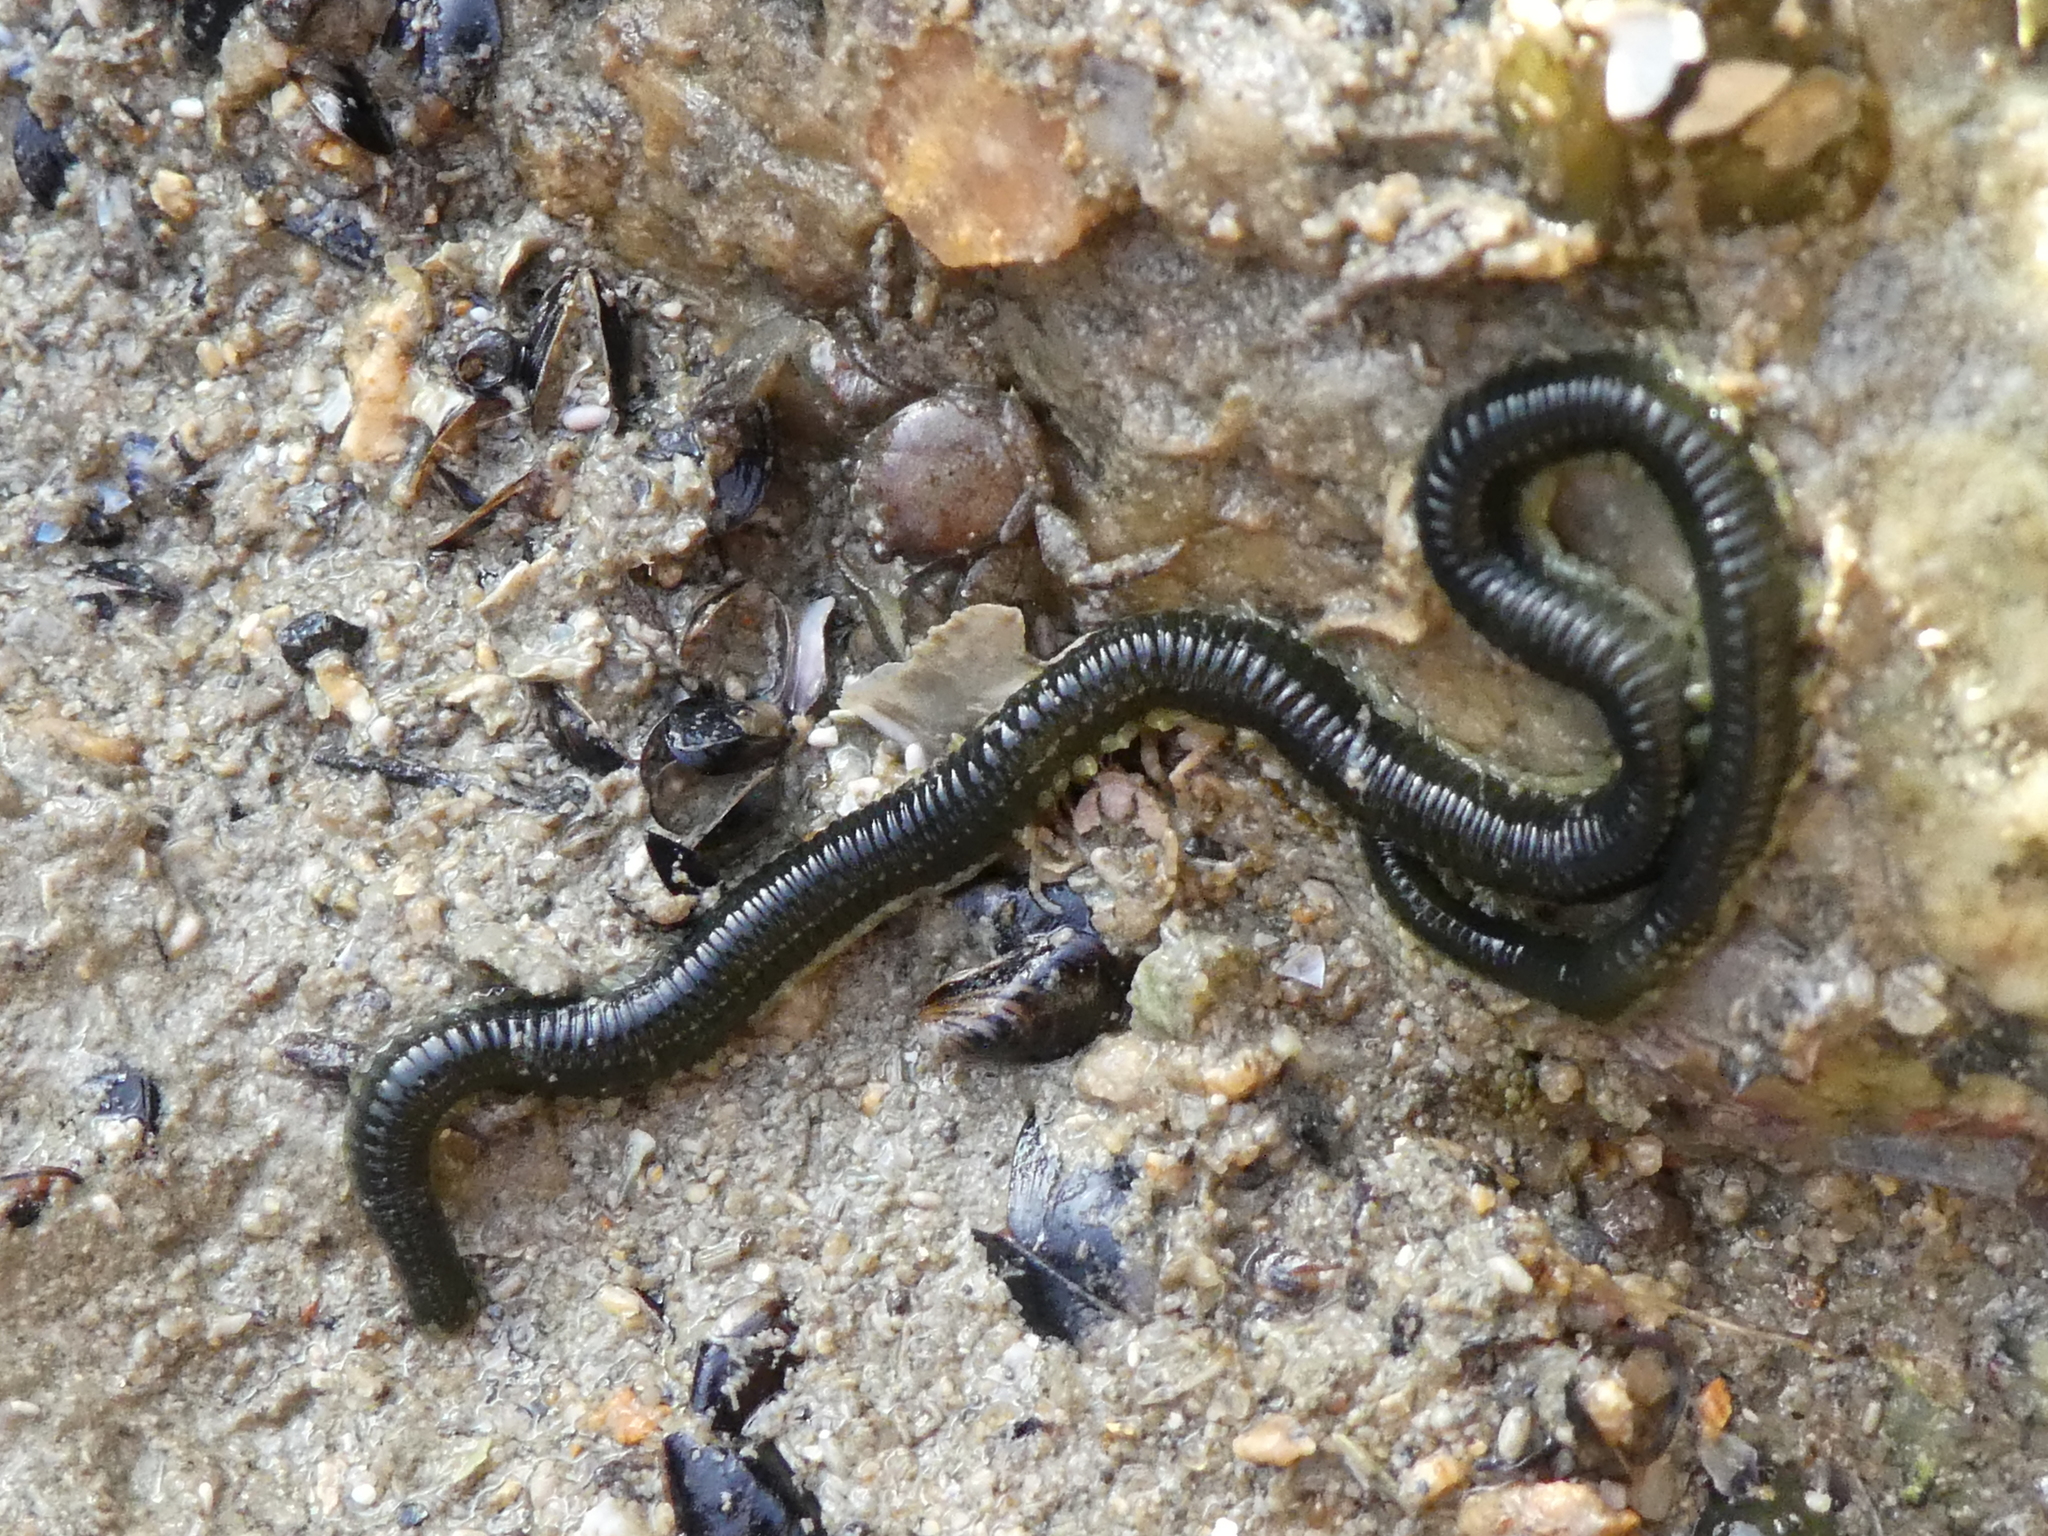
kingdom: Animalia
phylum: Annelida
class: Polychaeta
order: Phyllodocida
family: Phyllodocidae
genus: Eulalia
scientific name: Eulalia microphylla
